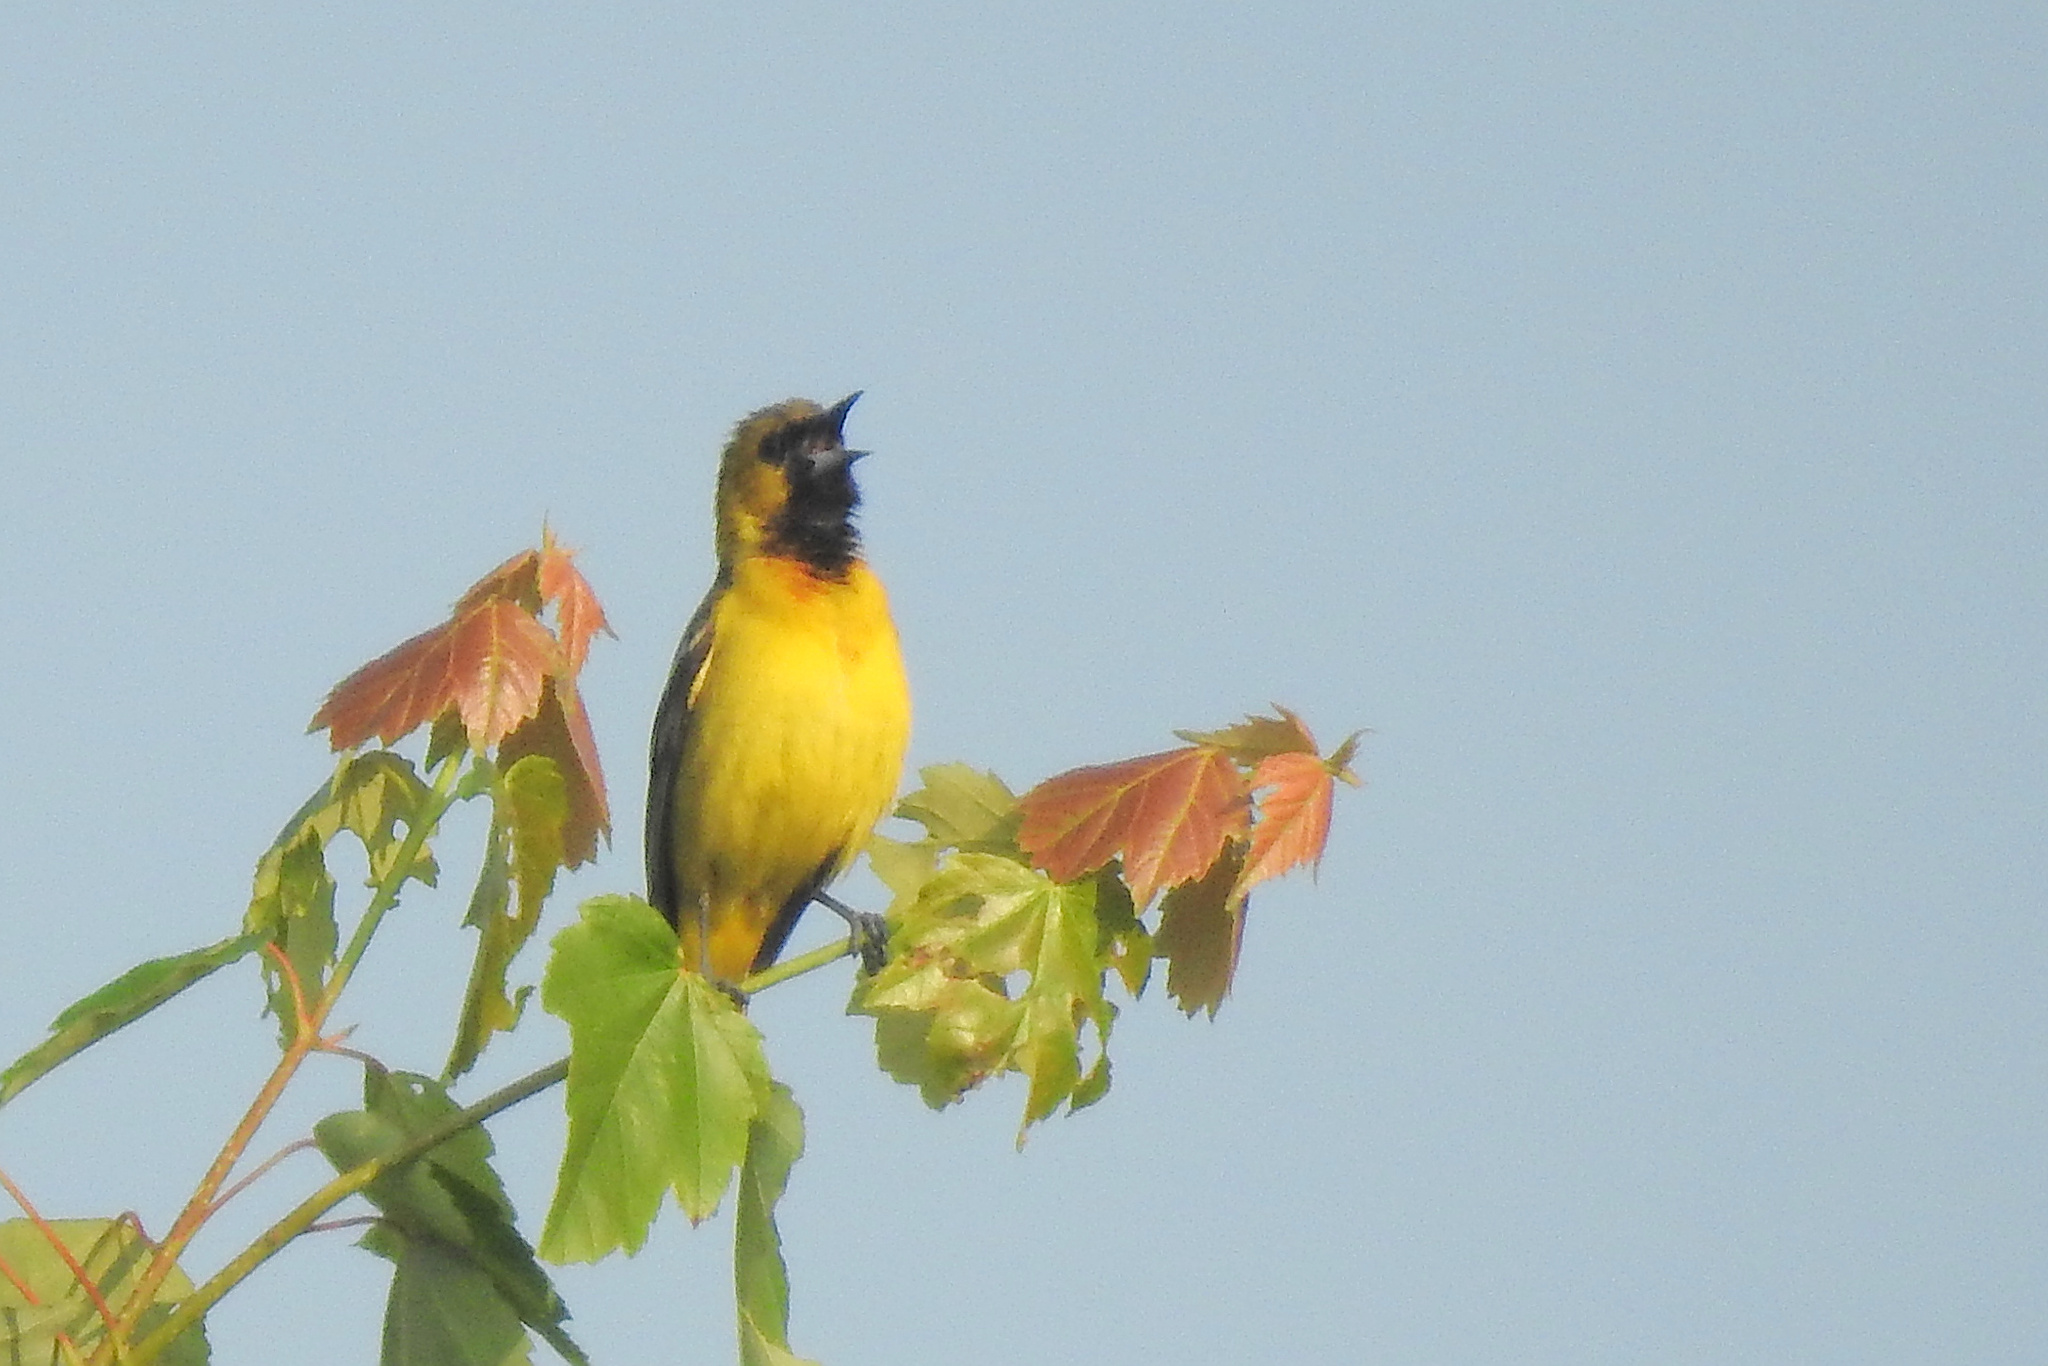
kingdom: Animalia
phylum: Chordata
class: Aves
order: Passeriformes
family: Icteridae
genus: Icterus
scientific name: Icterus spurius
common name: Orchard oriole
